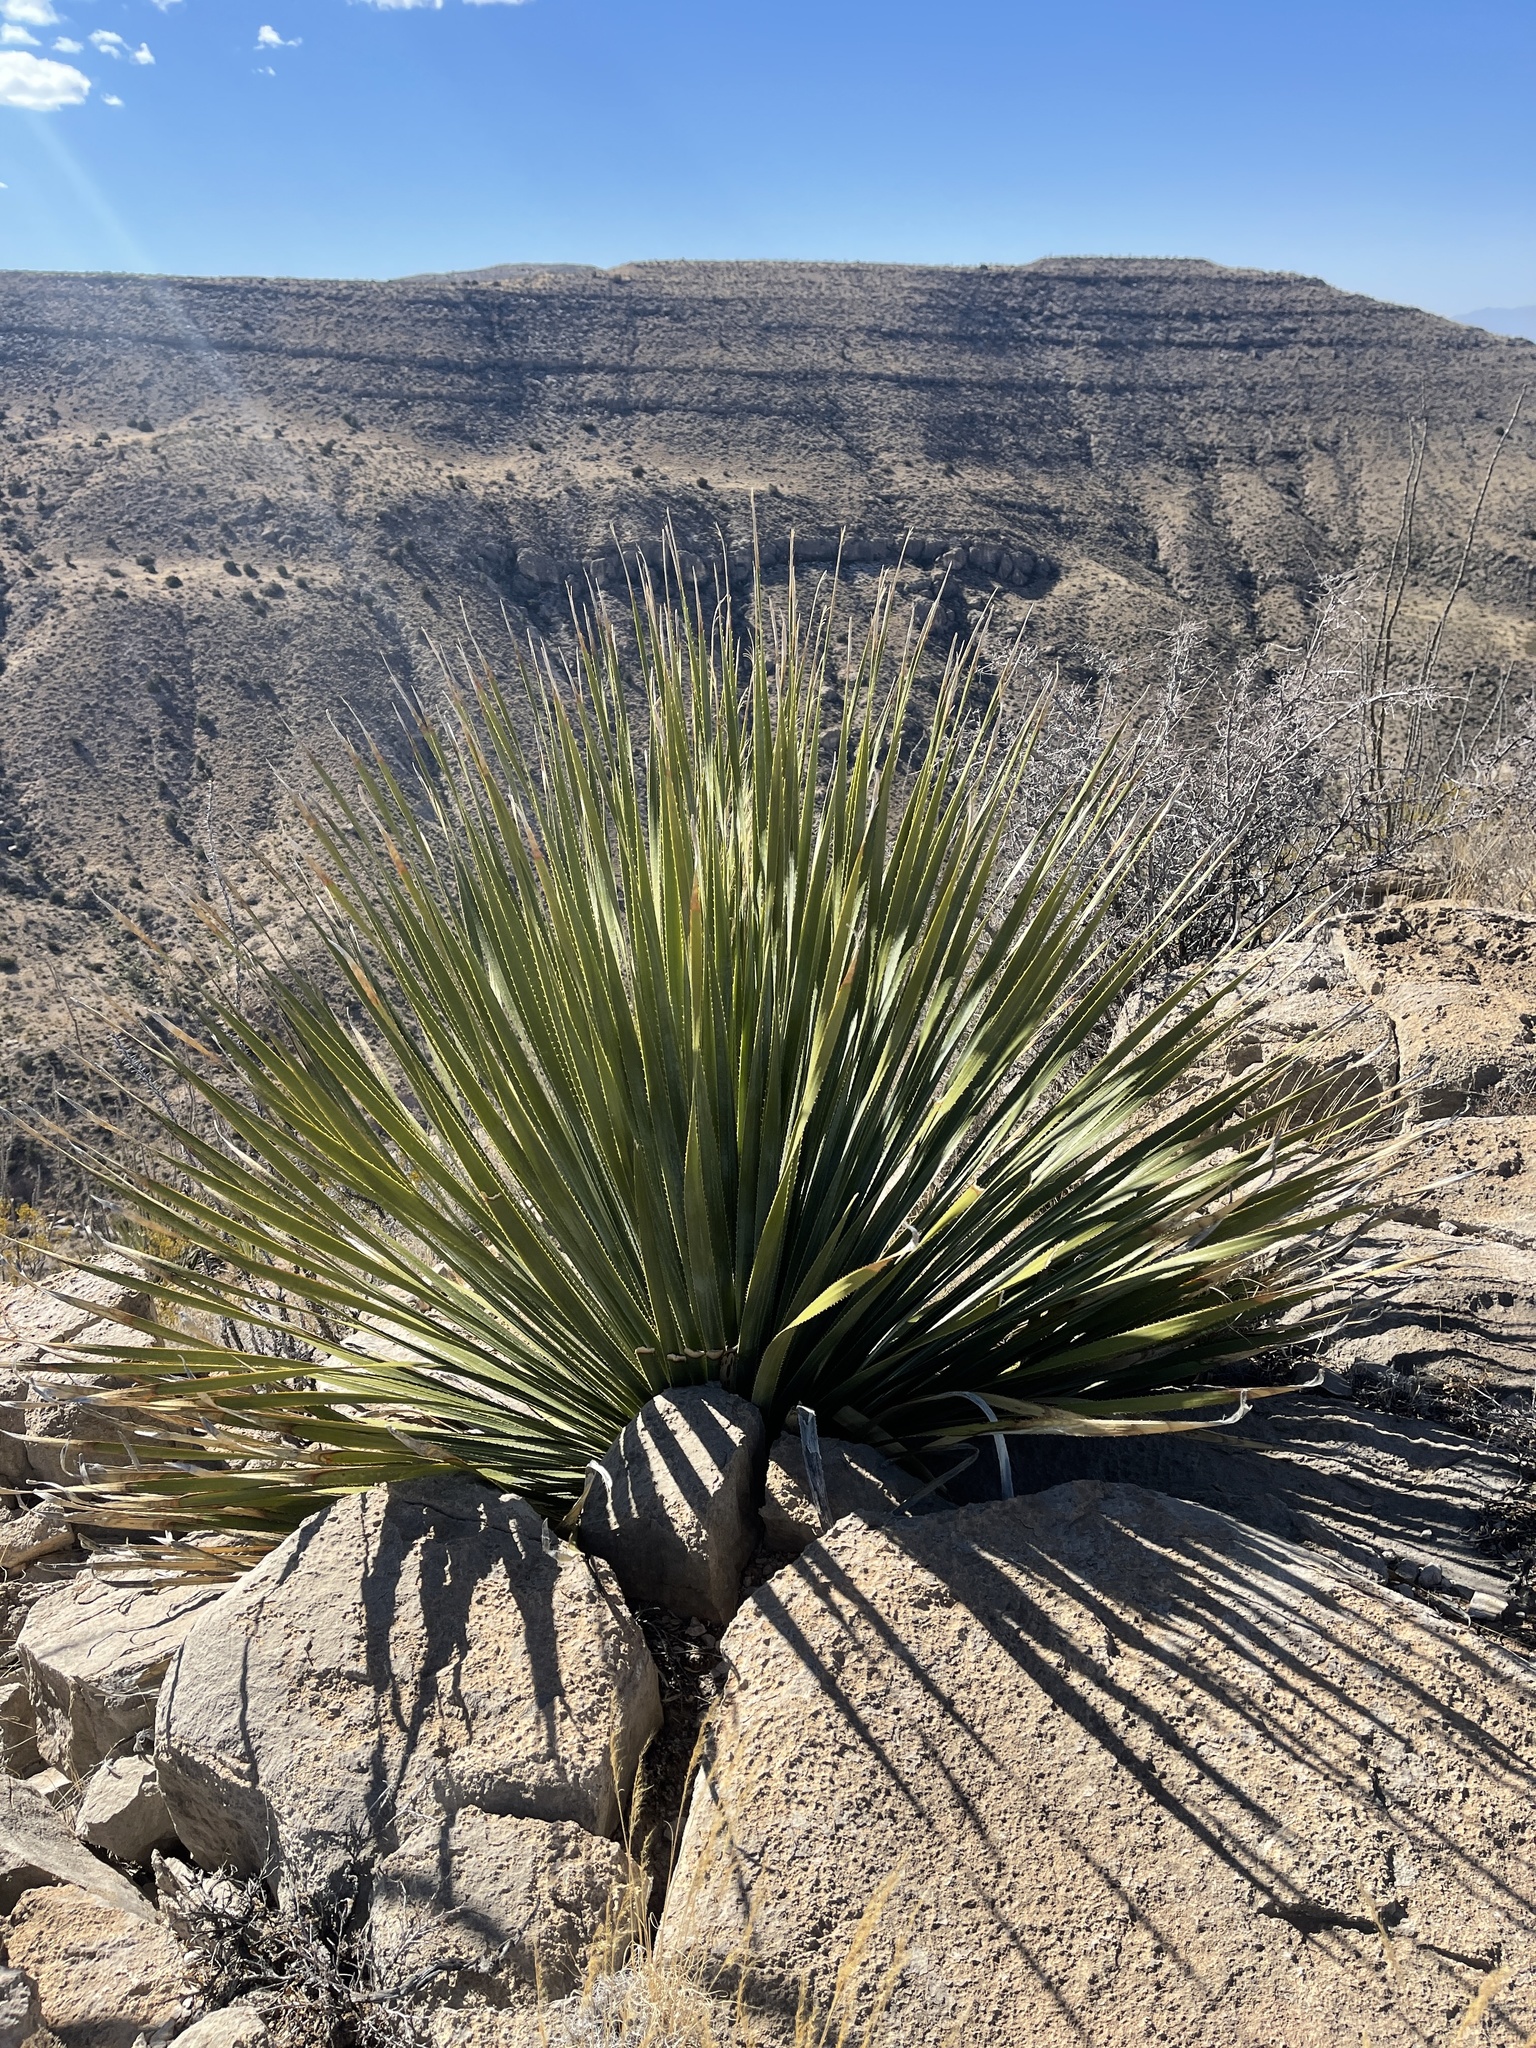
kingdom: Plantae
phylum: Tracheophyta
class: Liliopsida
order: Asparagales
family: Asparagaceae
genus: Dasylirion
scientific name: Dasylirion wheeleri
